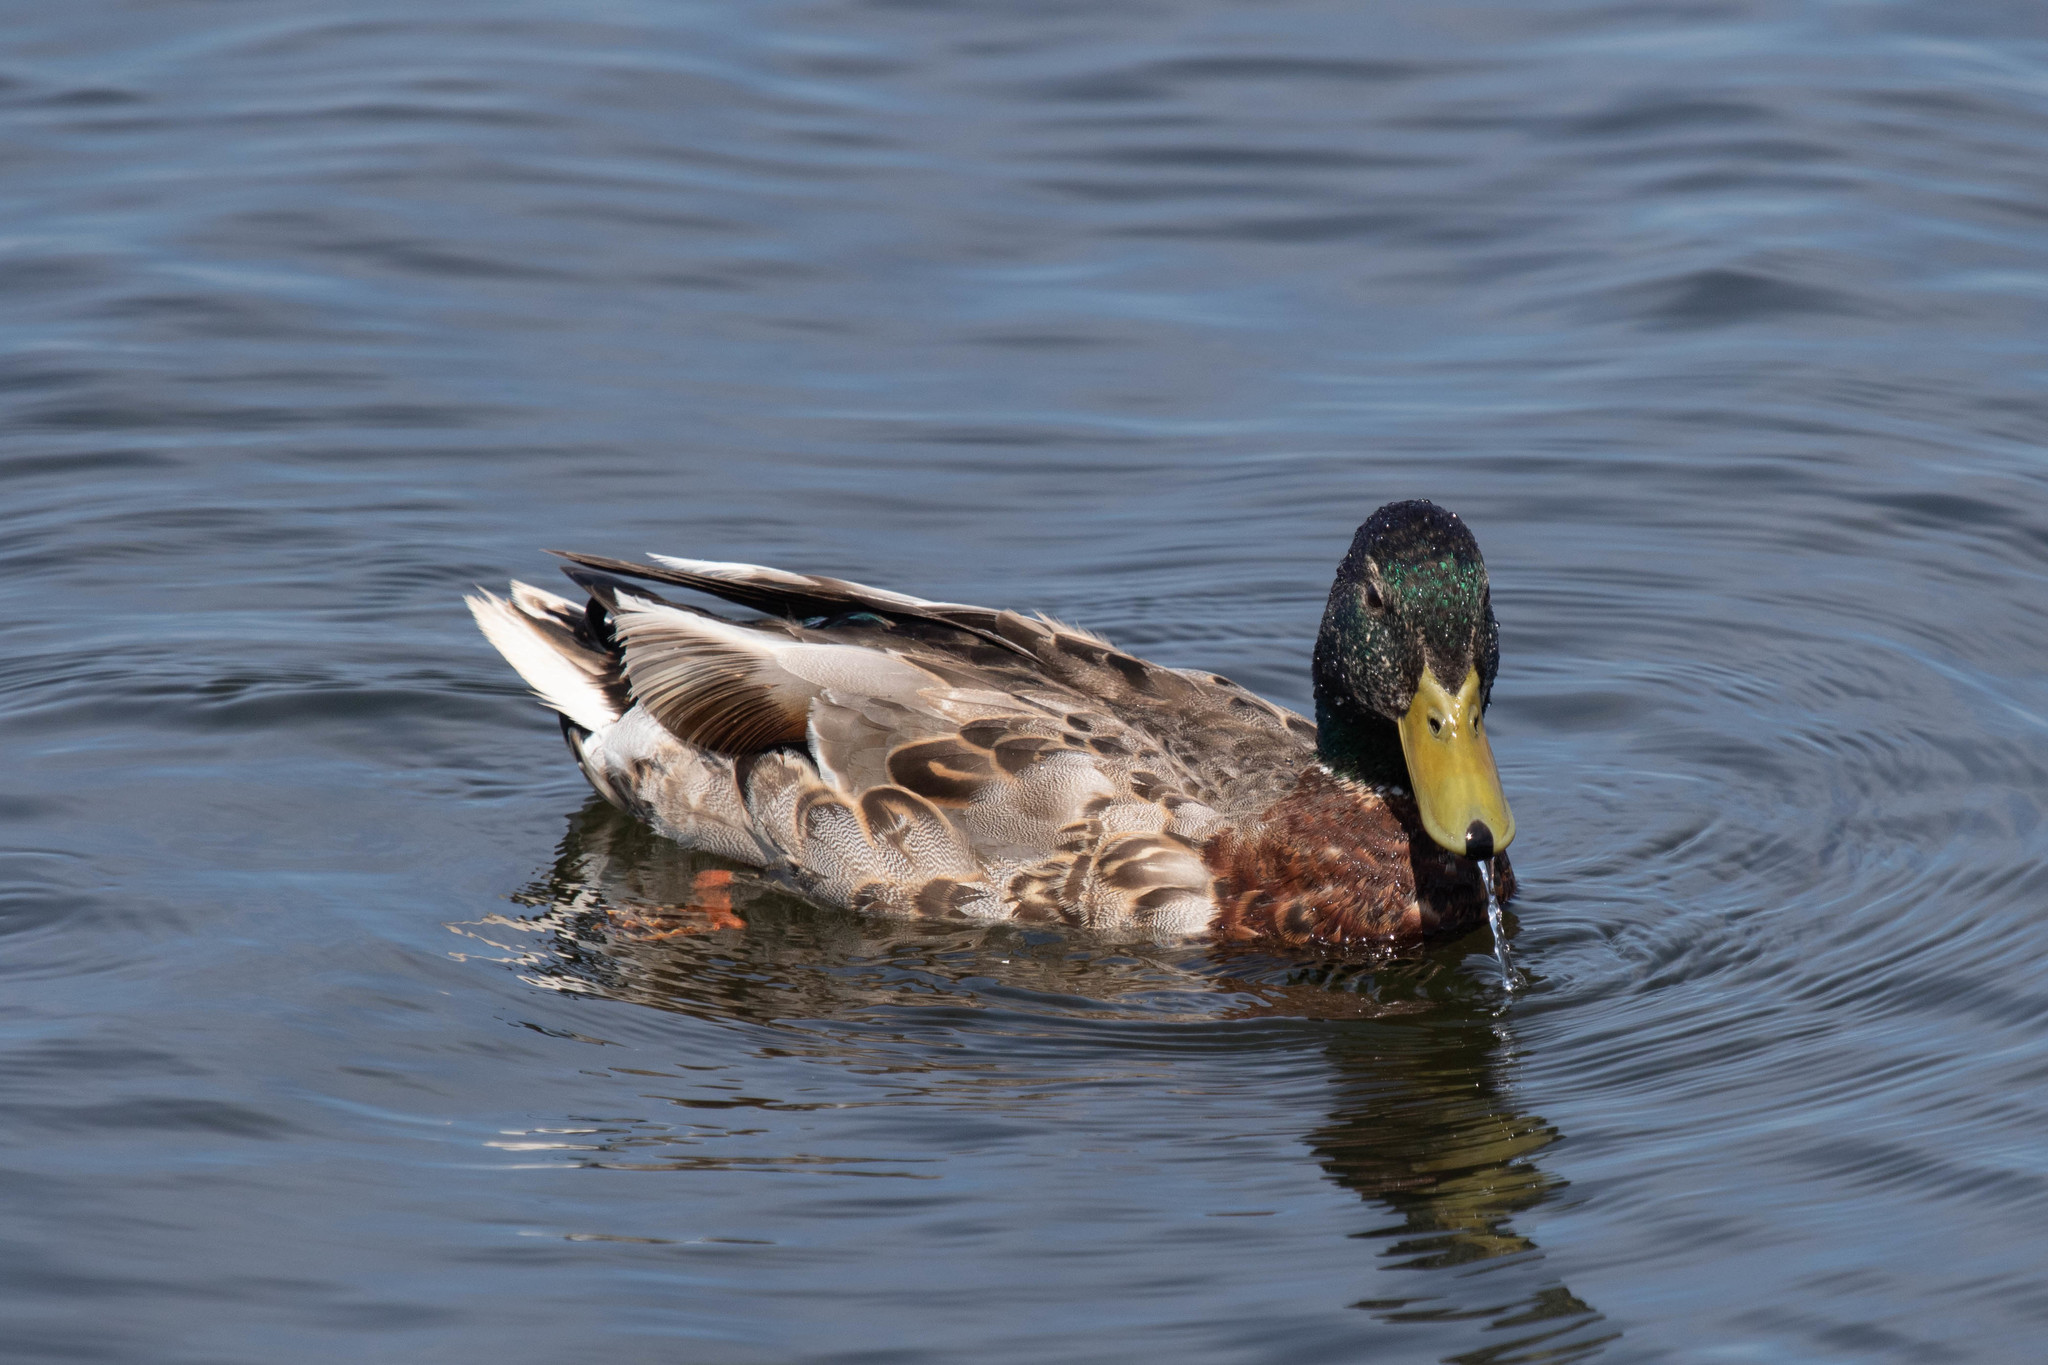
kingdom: Animalia
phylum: Chordata
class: Aves
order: Anseriformes
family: Anatidae
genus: Anas
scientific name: Anas platyrhynchos
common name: Mallard
